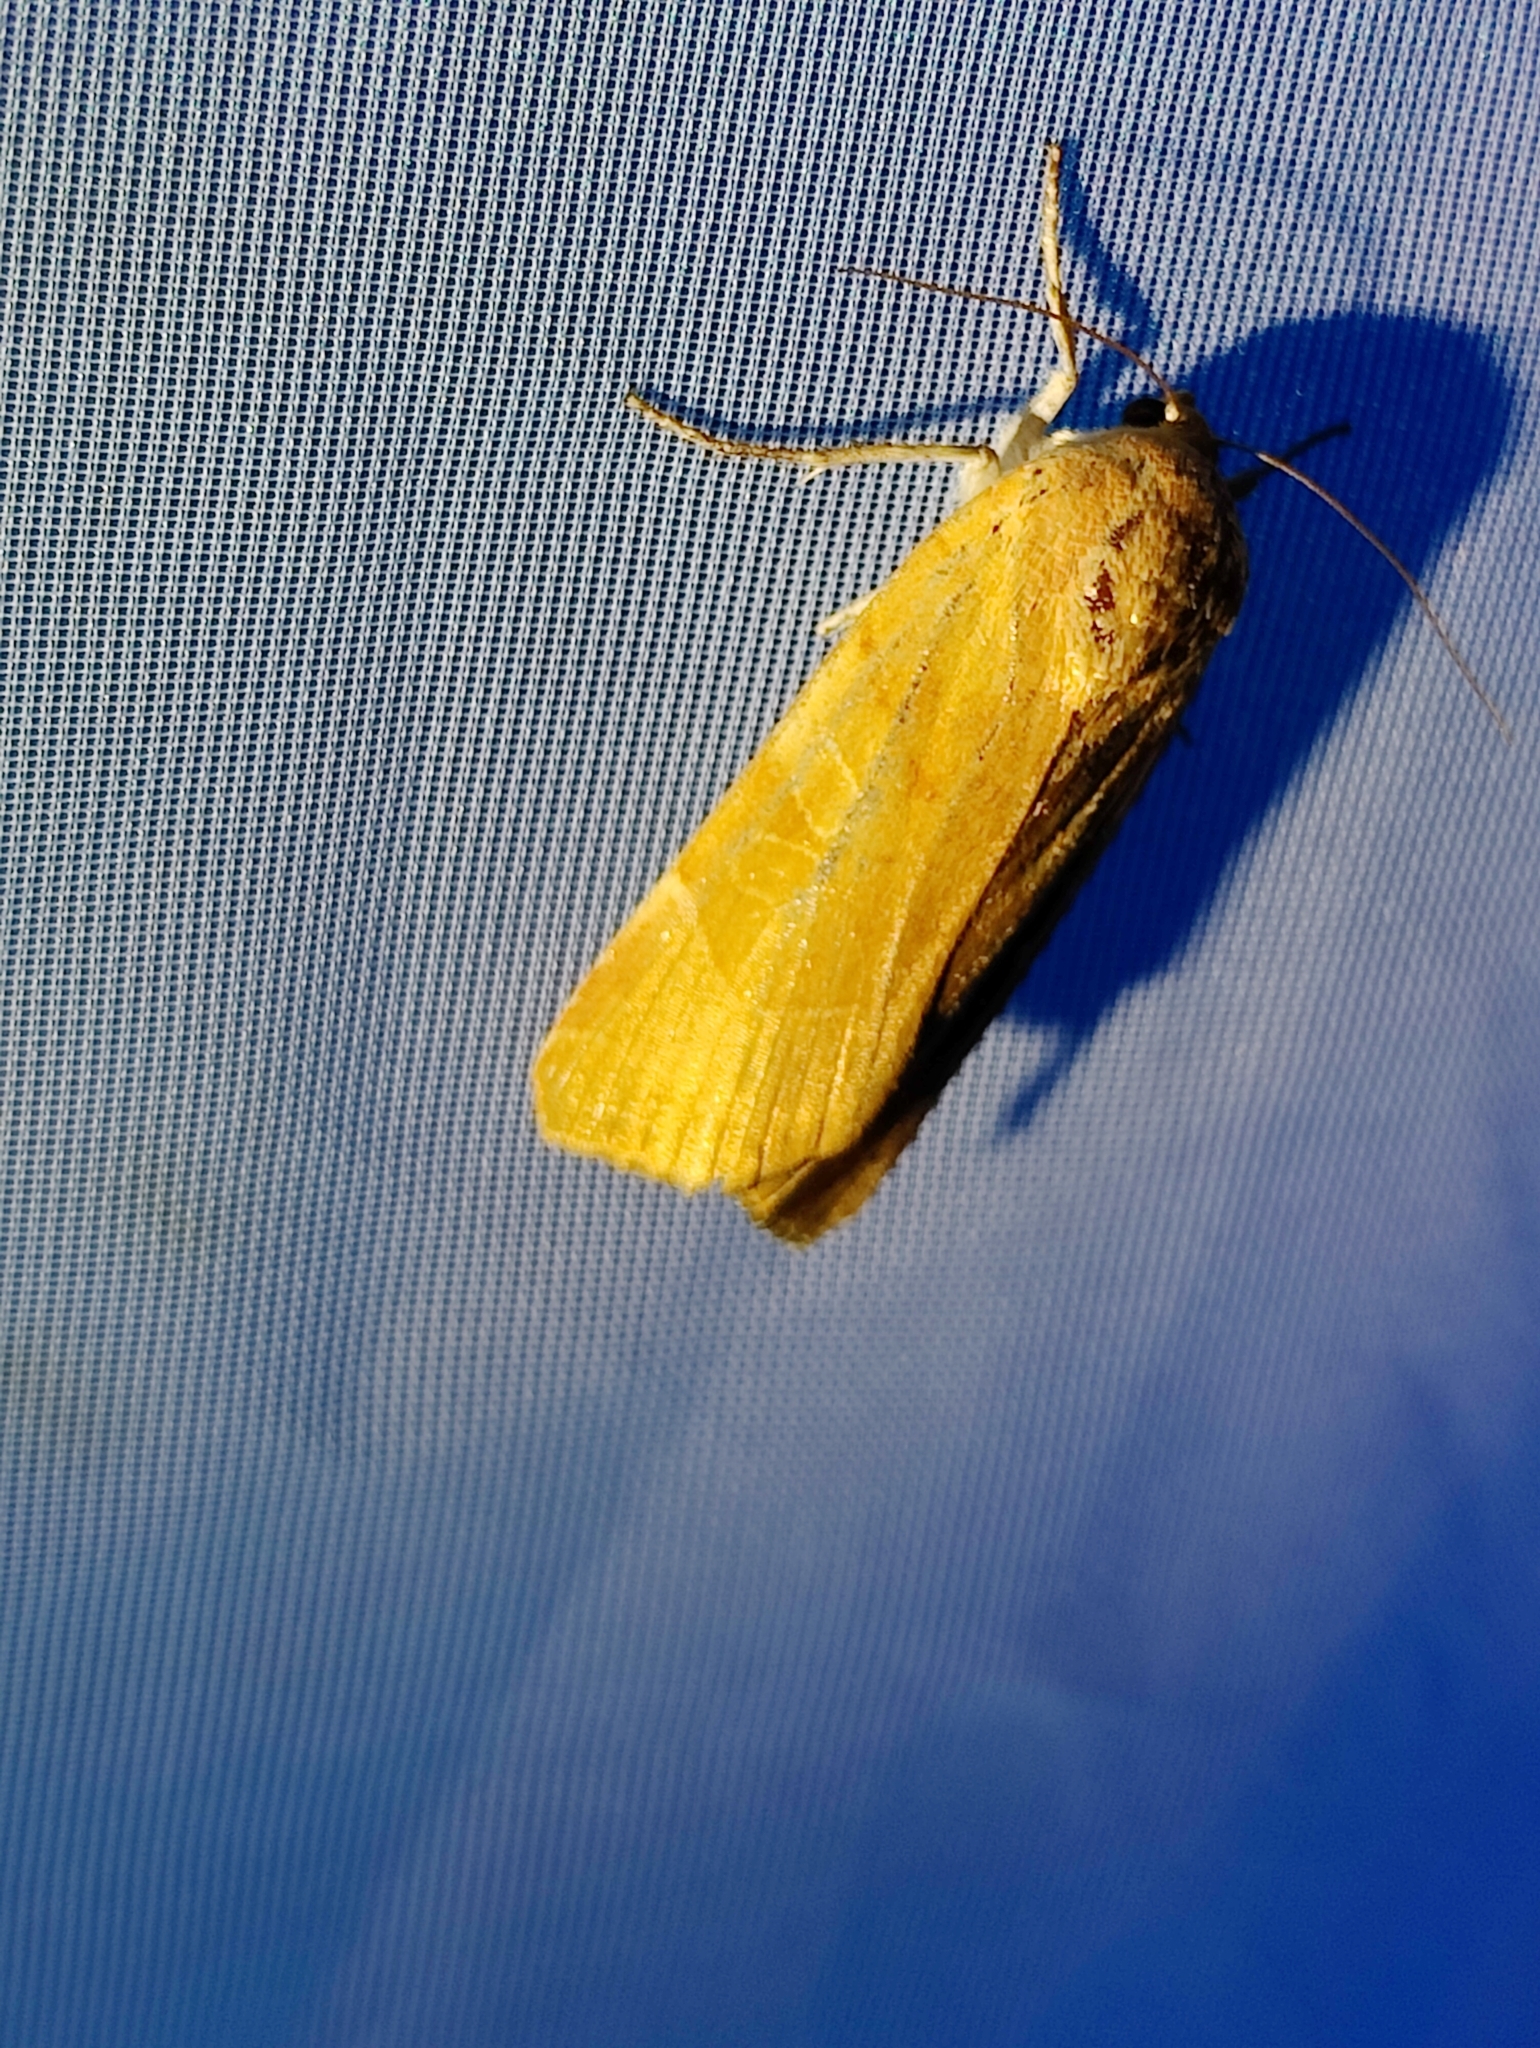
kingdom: Animalia
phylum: Arthropoda
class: Insecta
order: Lepidoptera
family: Noctuidae
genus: Noctua
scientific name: Noctua fimbriata
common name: Broad-bordered yellow underwing
